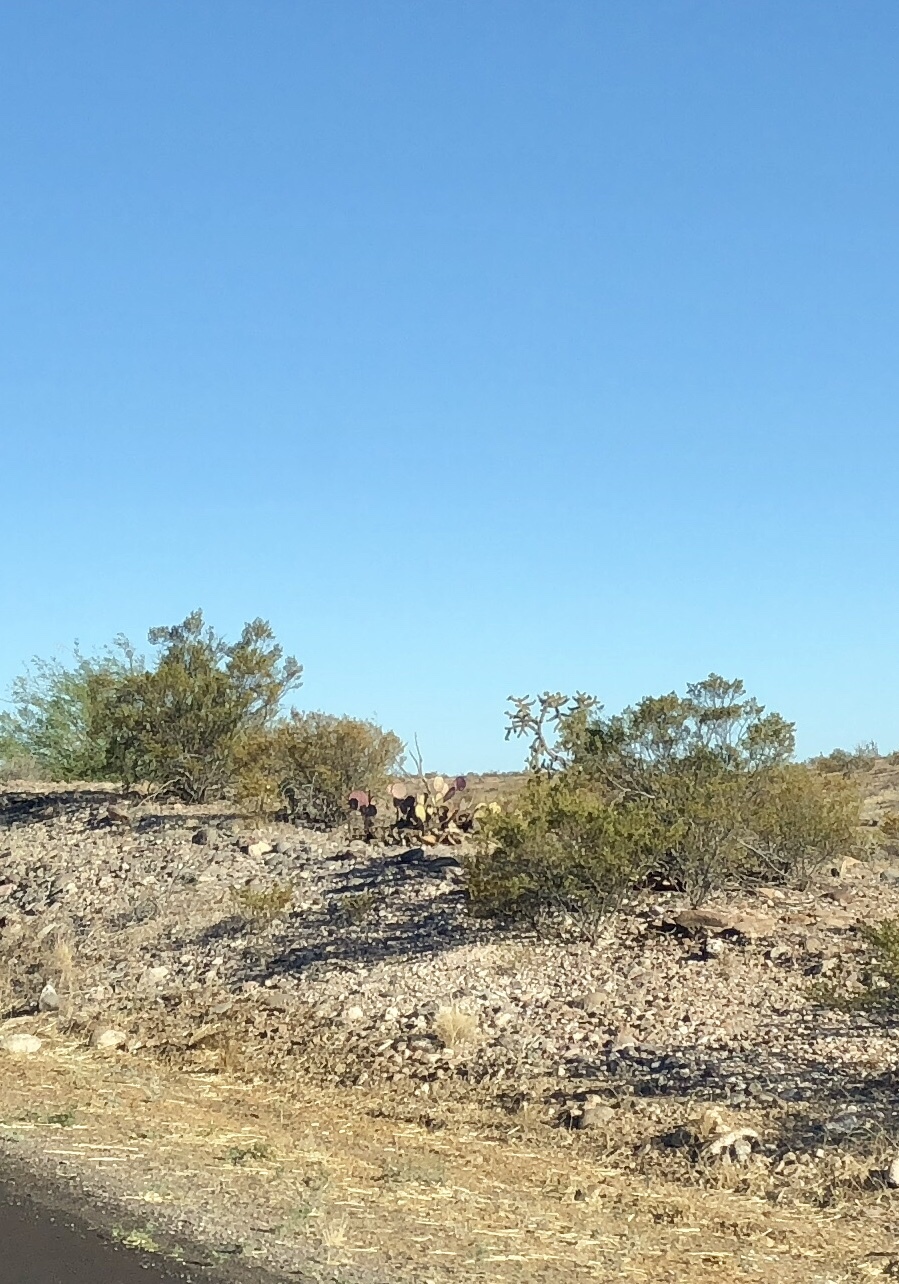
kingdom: Plantae
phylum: Tracheophyta
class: Magnoliopsida
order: Zygophyllales
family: Zygophyllaceae
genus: Larrea
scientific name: Larrea tridentata
